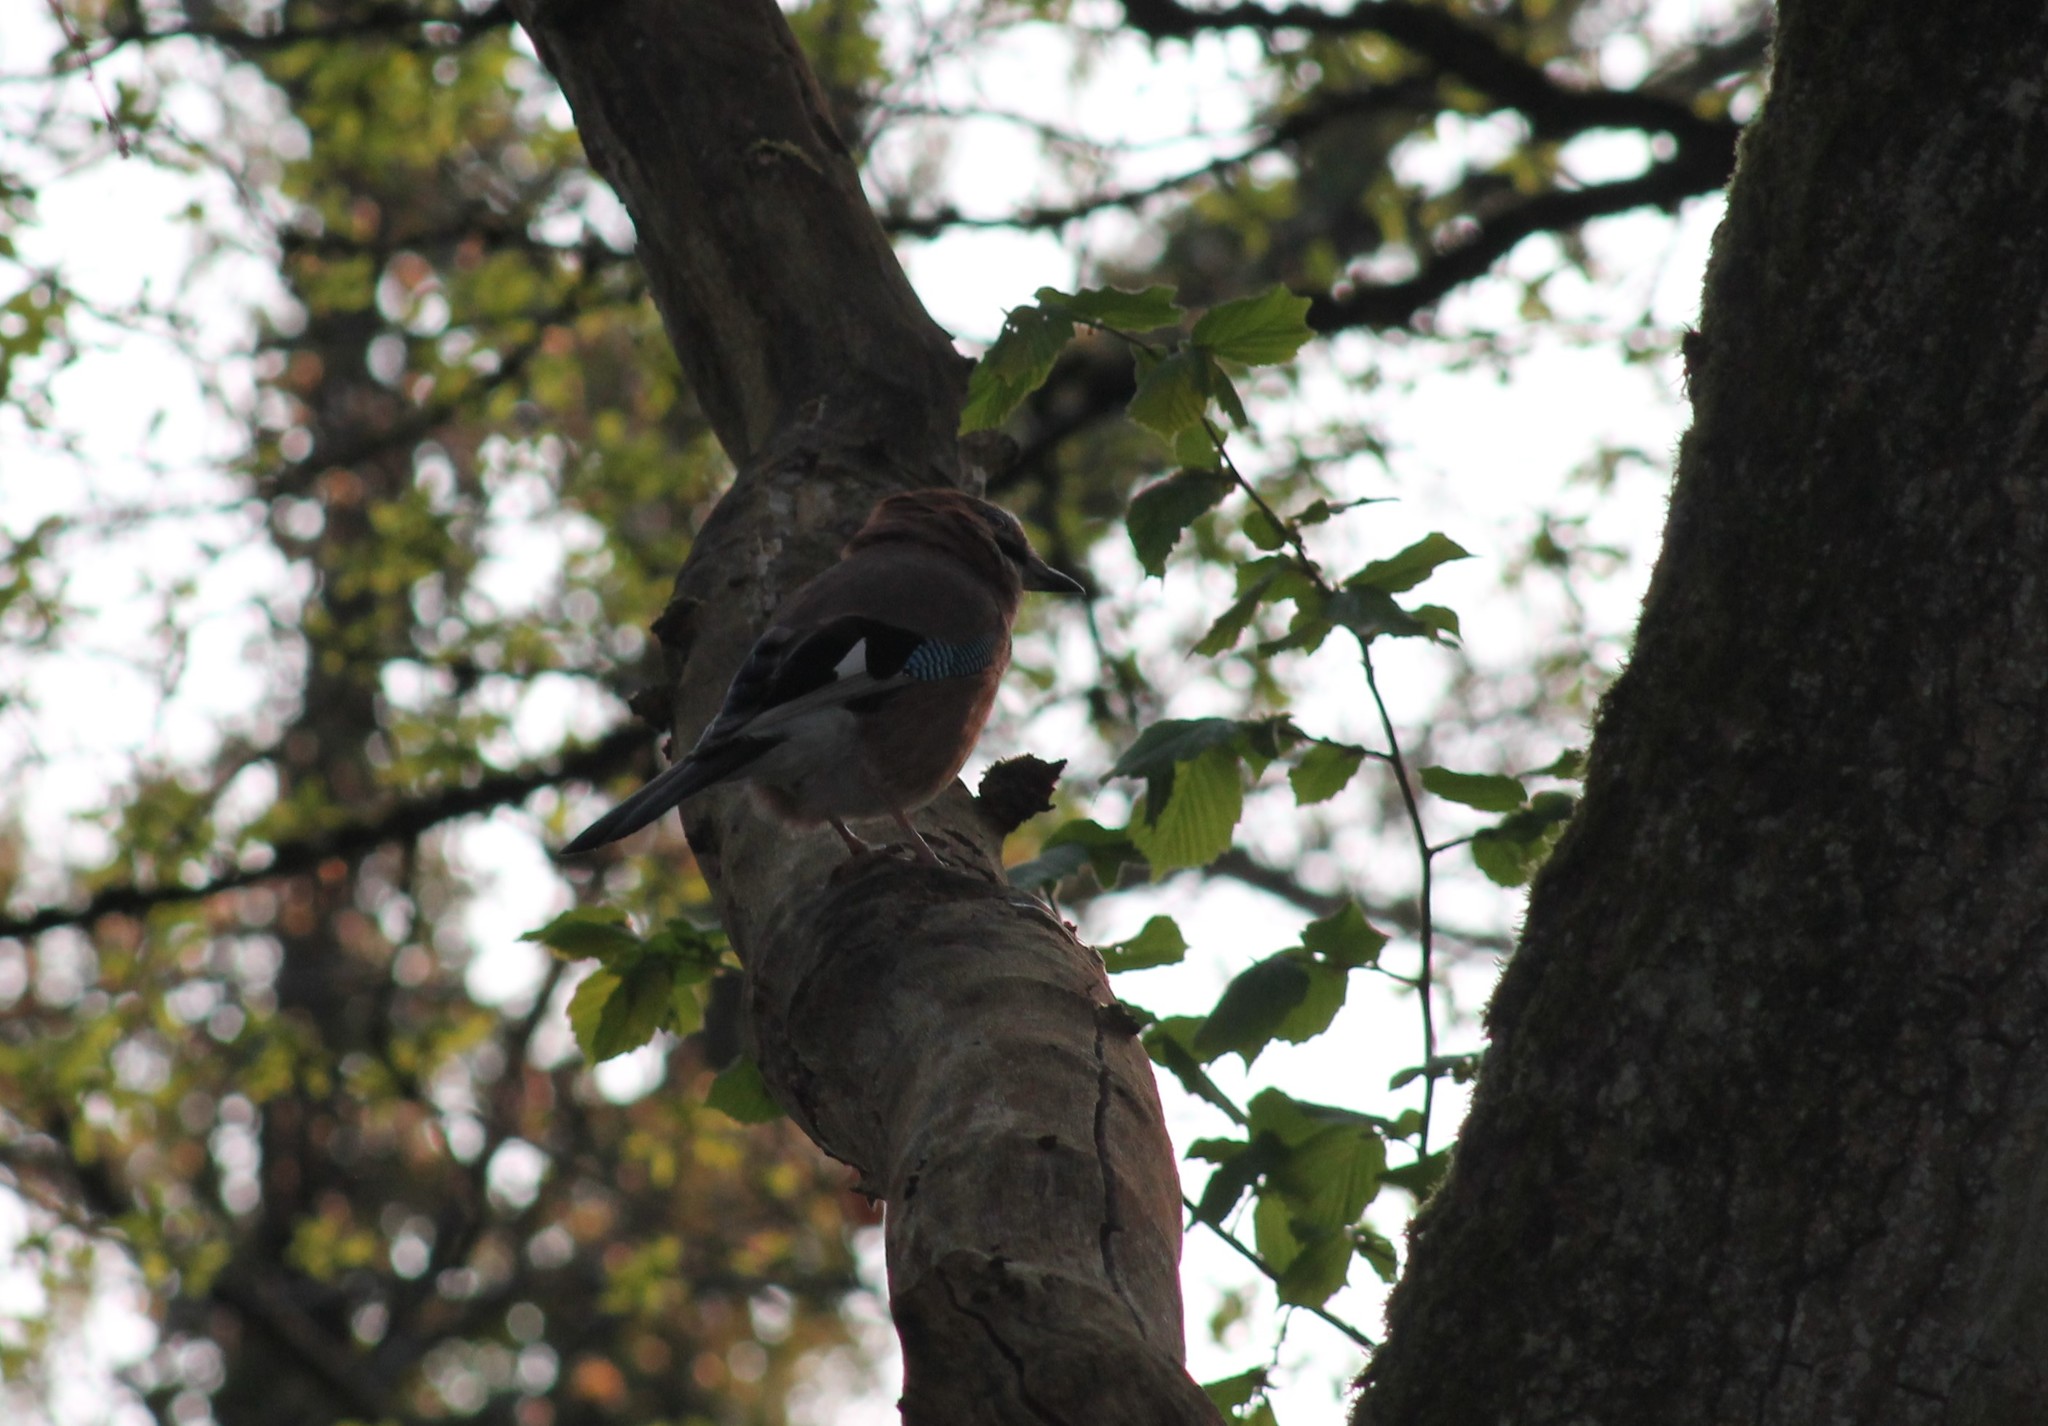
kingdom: Animalia
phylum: Chordata
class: Aves
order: Passeriformes
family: Corvidae
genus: Garrulus
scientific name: Garrulus glandarius
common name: Eurasian jay
